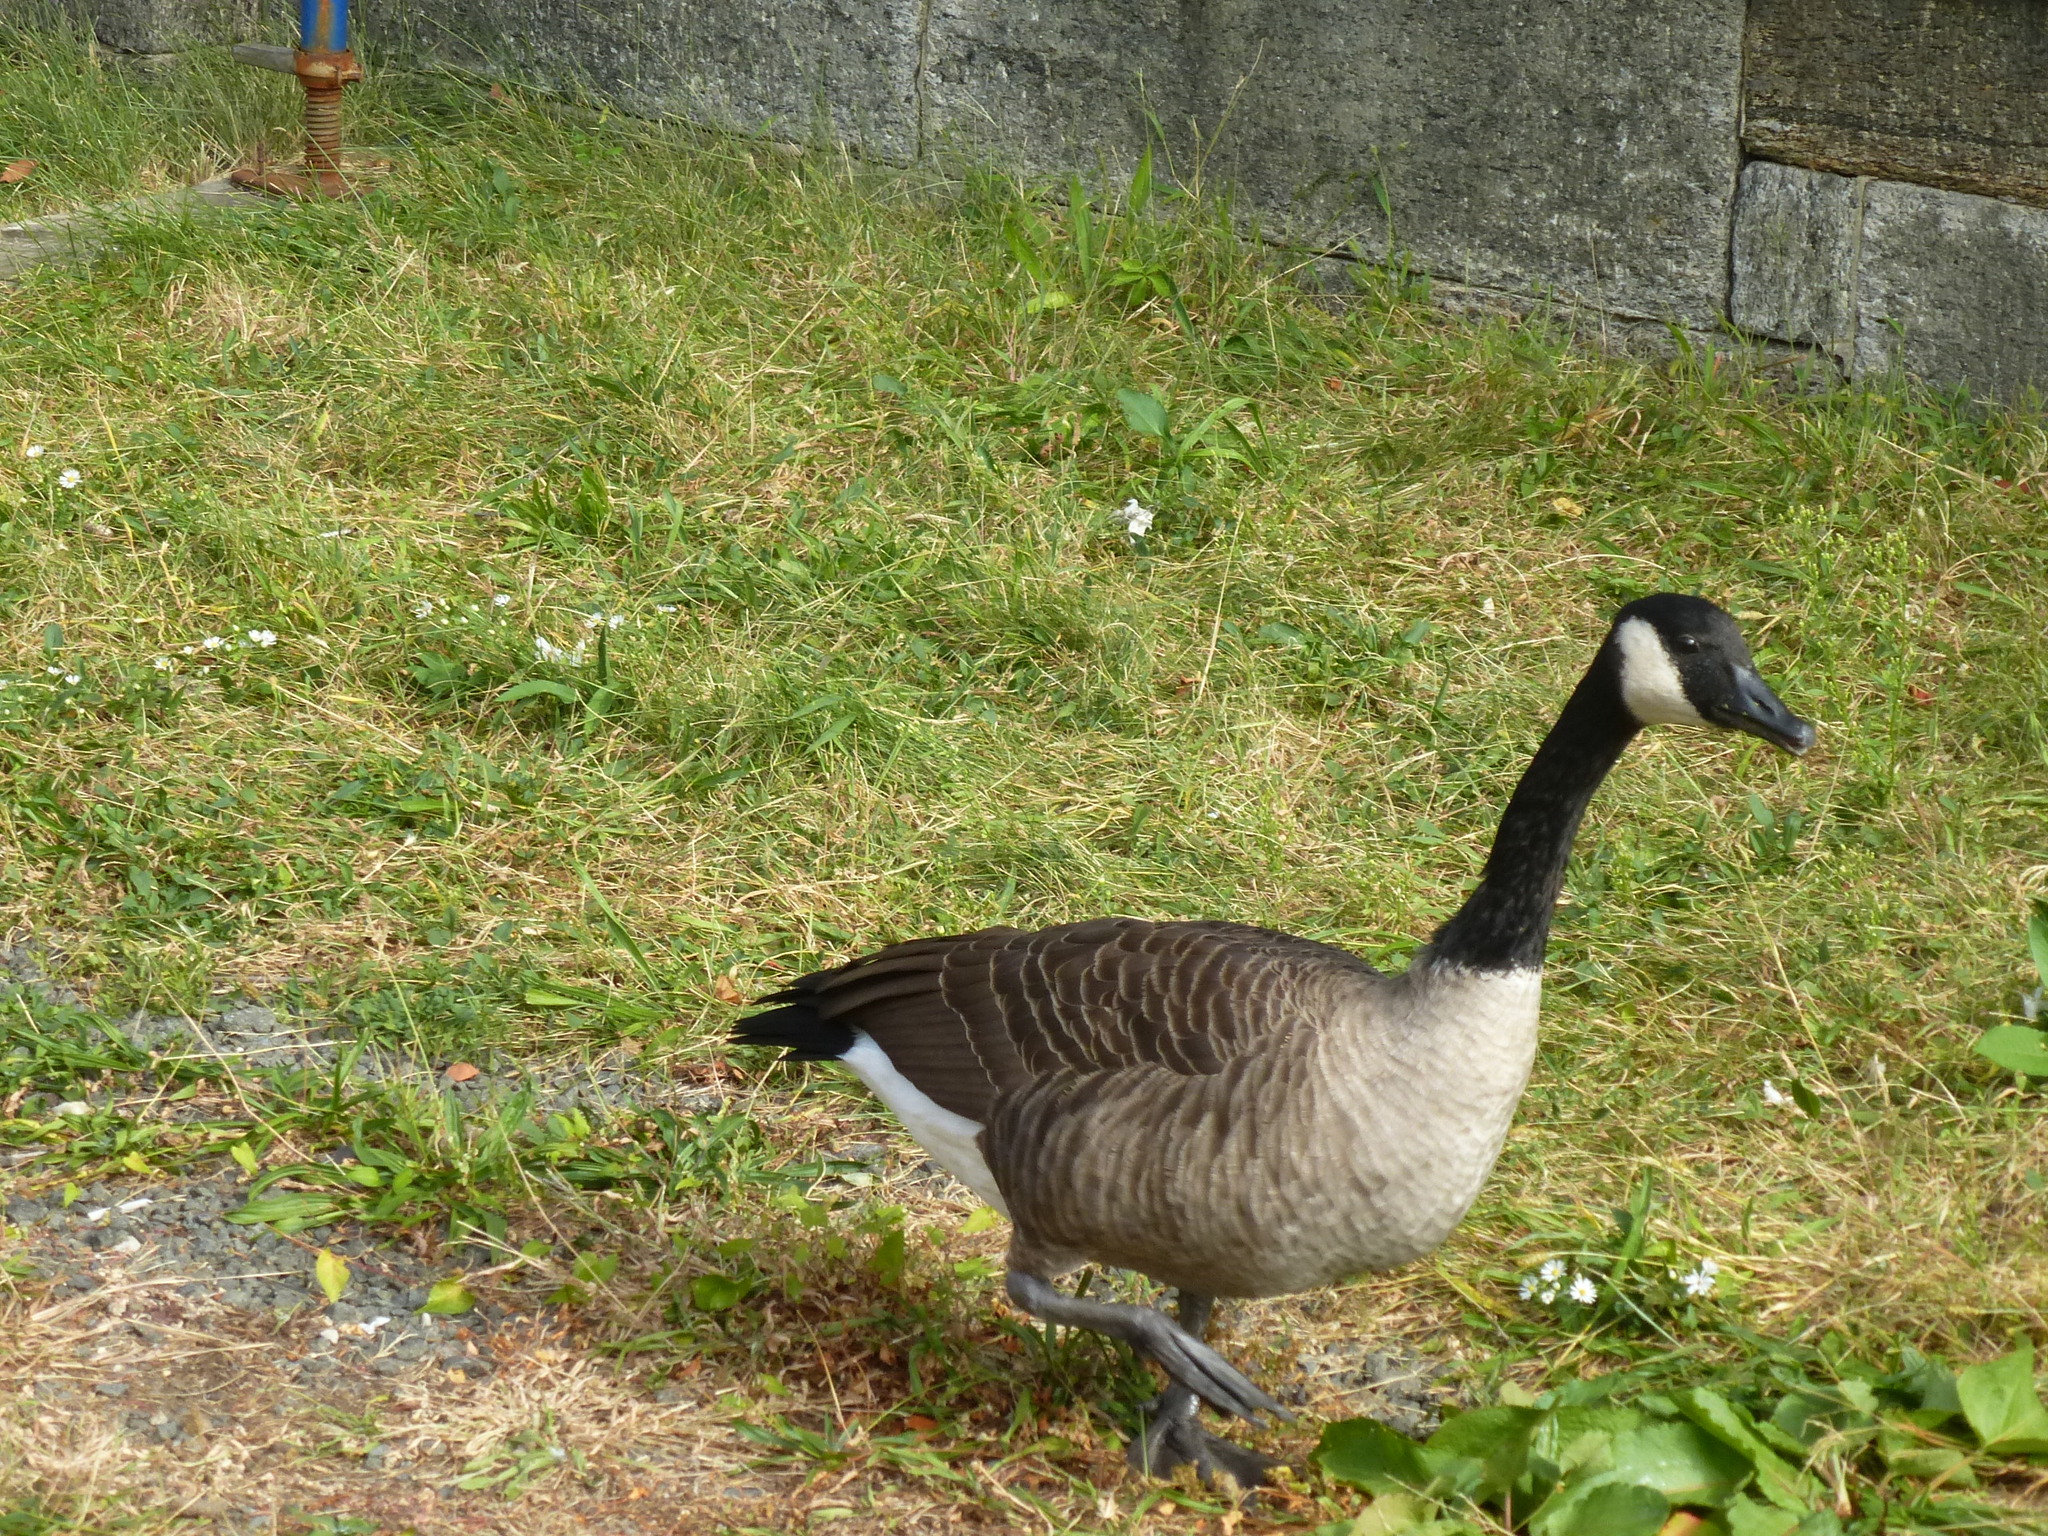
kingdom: Animalia
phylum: Chordata
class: Aves
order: Anseriformes
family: Anatidae
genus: Branta
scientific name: Branta canadensis
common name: Canada goose
